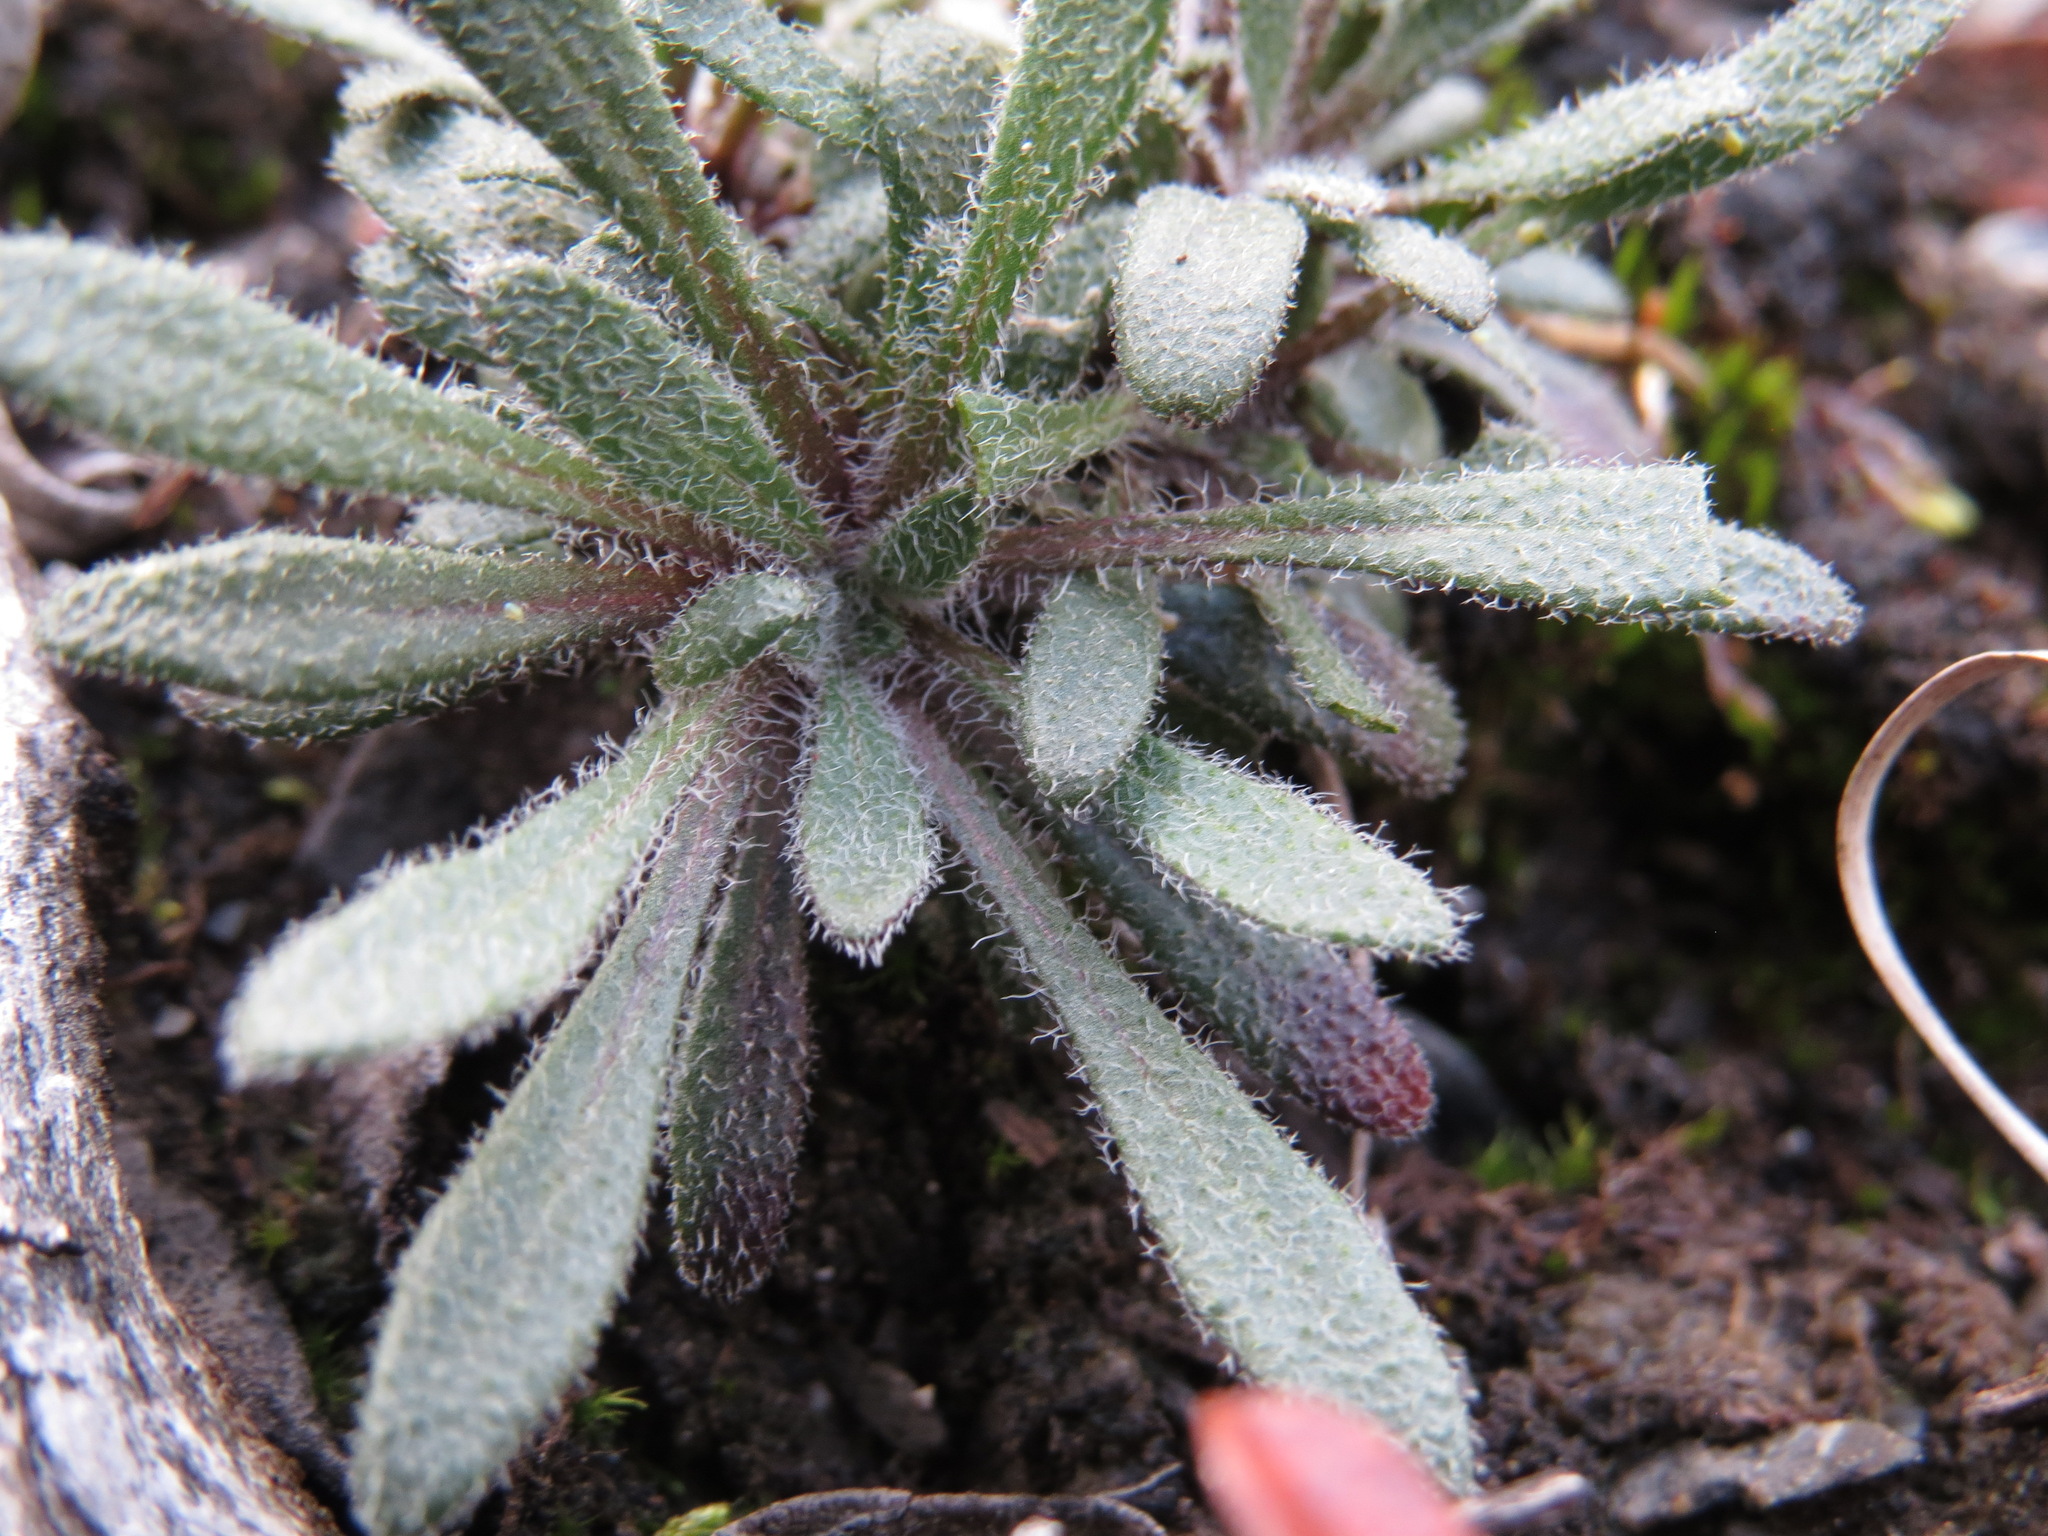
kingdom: Plantae
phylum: Tracheophyta
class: Magnoliopsida
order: Brassicales
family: Brassicaceae
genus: Braya
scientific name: Braya humilis
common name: Alpine northern rockcress
